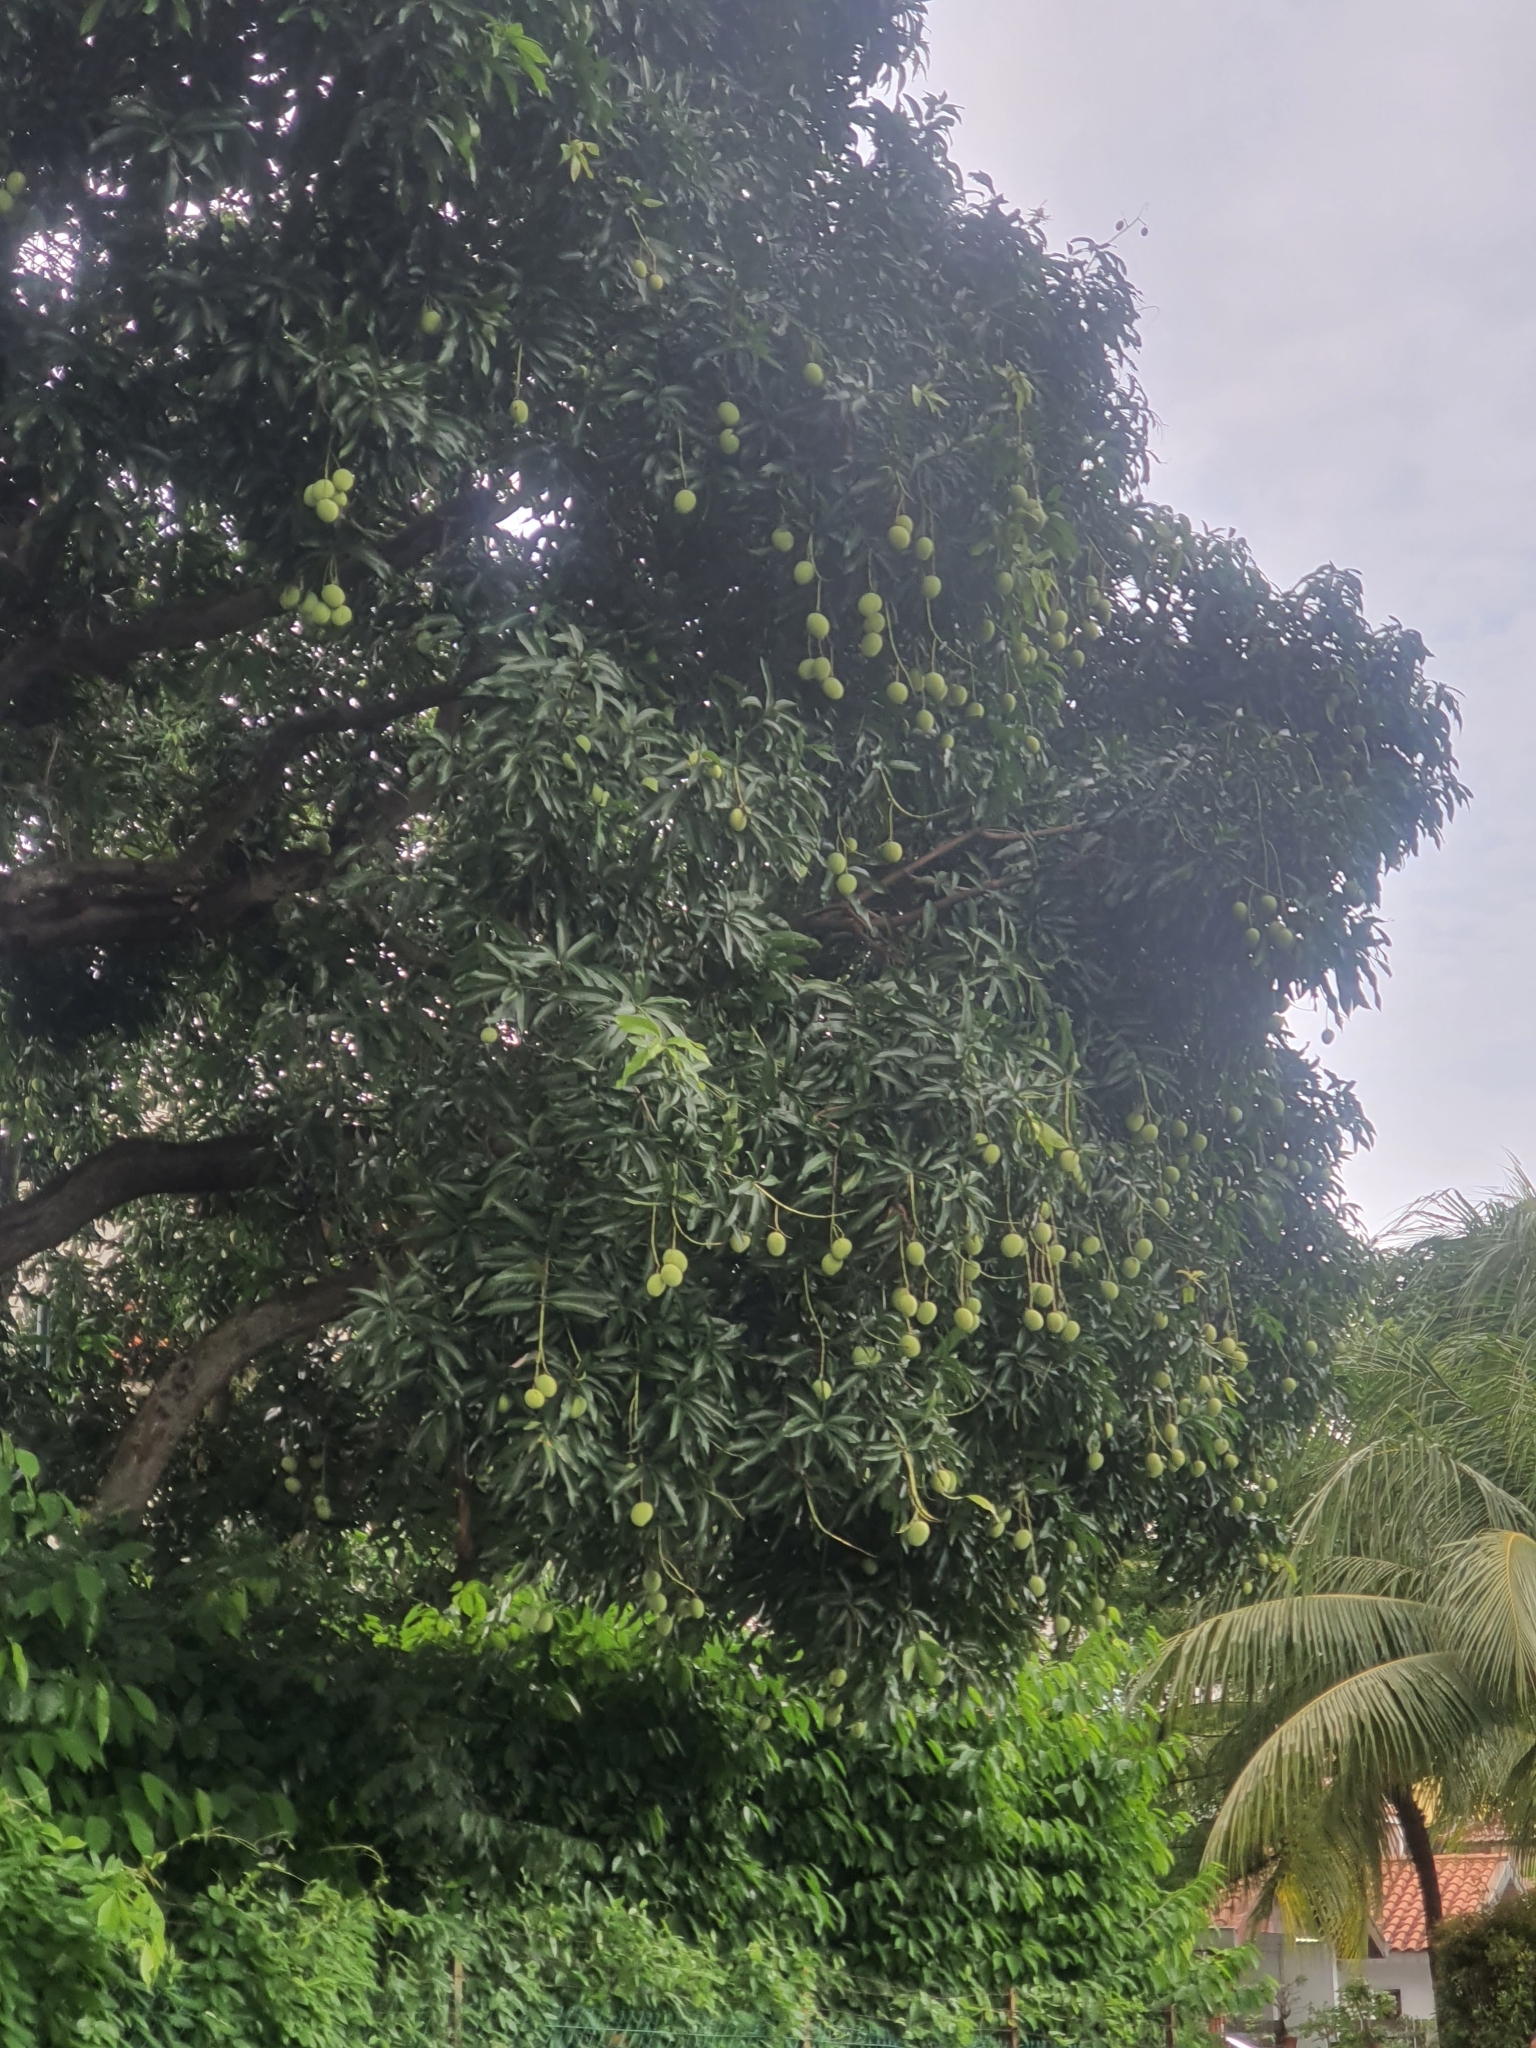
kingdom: Plantae
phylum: Tracheophyta
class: Magnoliopsida
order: Sapindales
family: Anacardiaceae
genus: Mangifera
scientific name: Mangifera indica
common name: Mango
